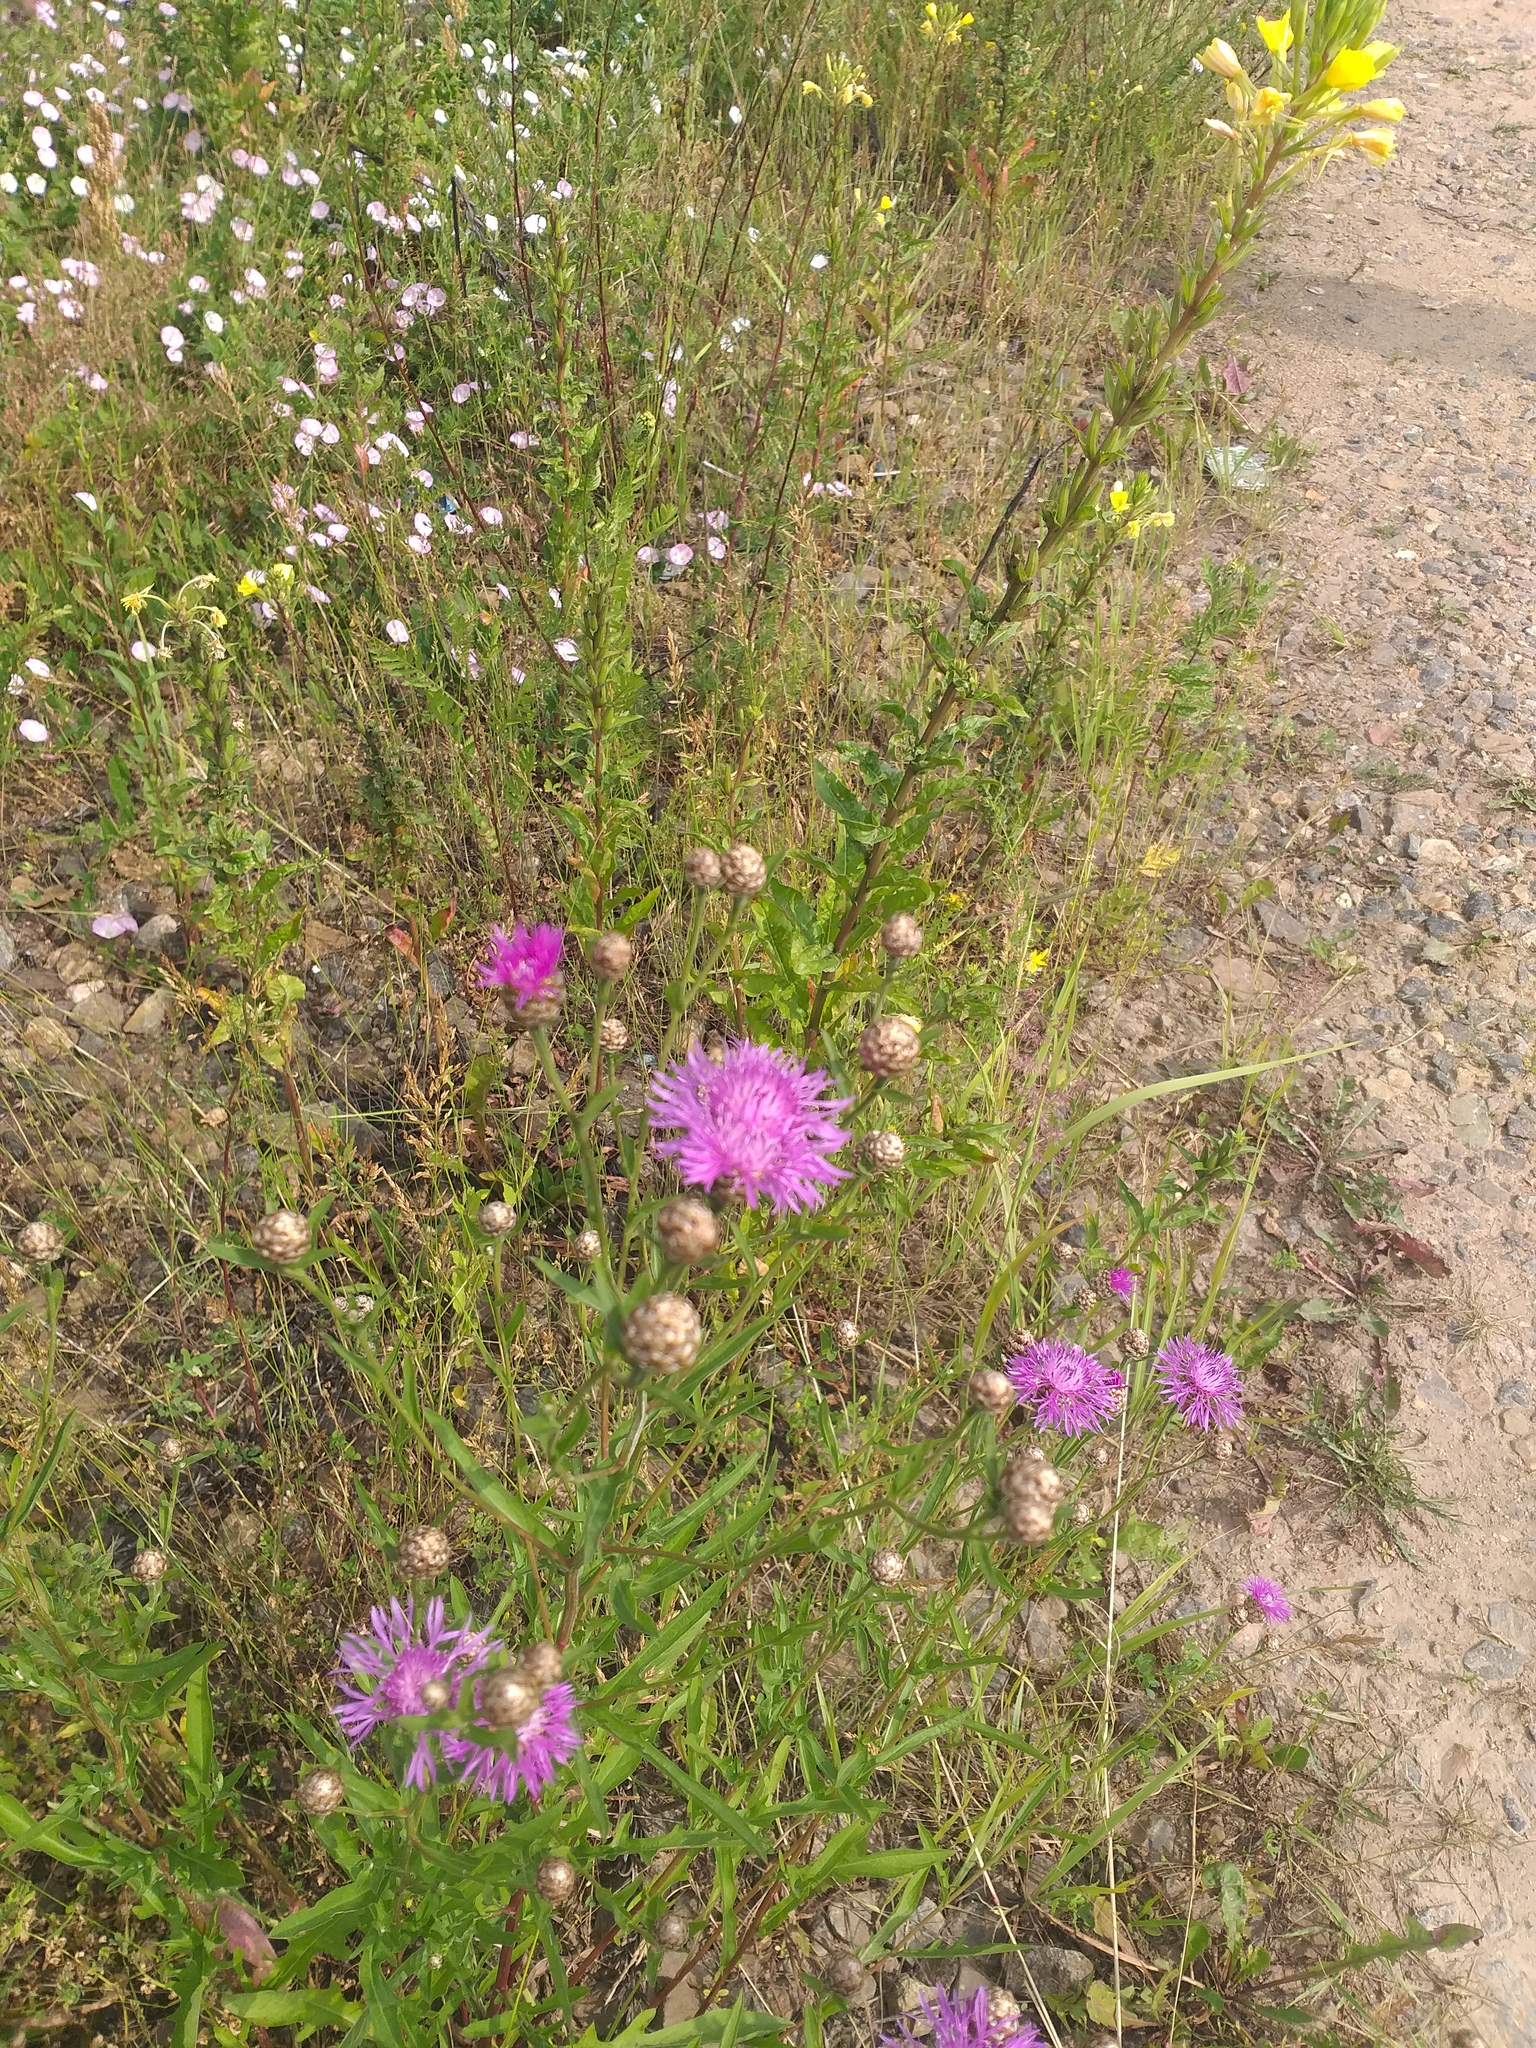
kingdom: Plantae
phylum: Tracheophyta
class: Magnoliopsida
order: Asterales
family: Asteraceae
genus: Centaurea
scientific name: Centaurea jacea
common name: Brown knapweed
